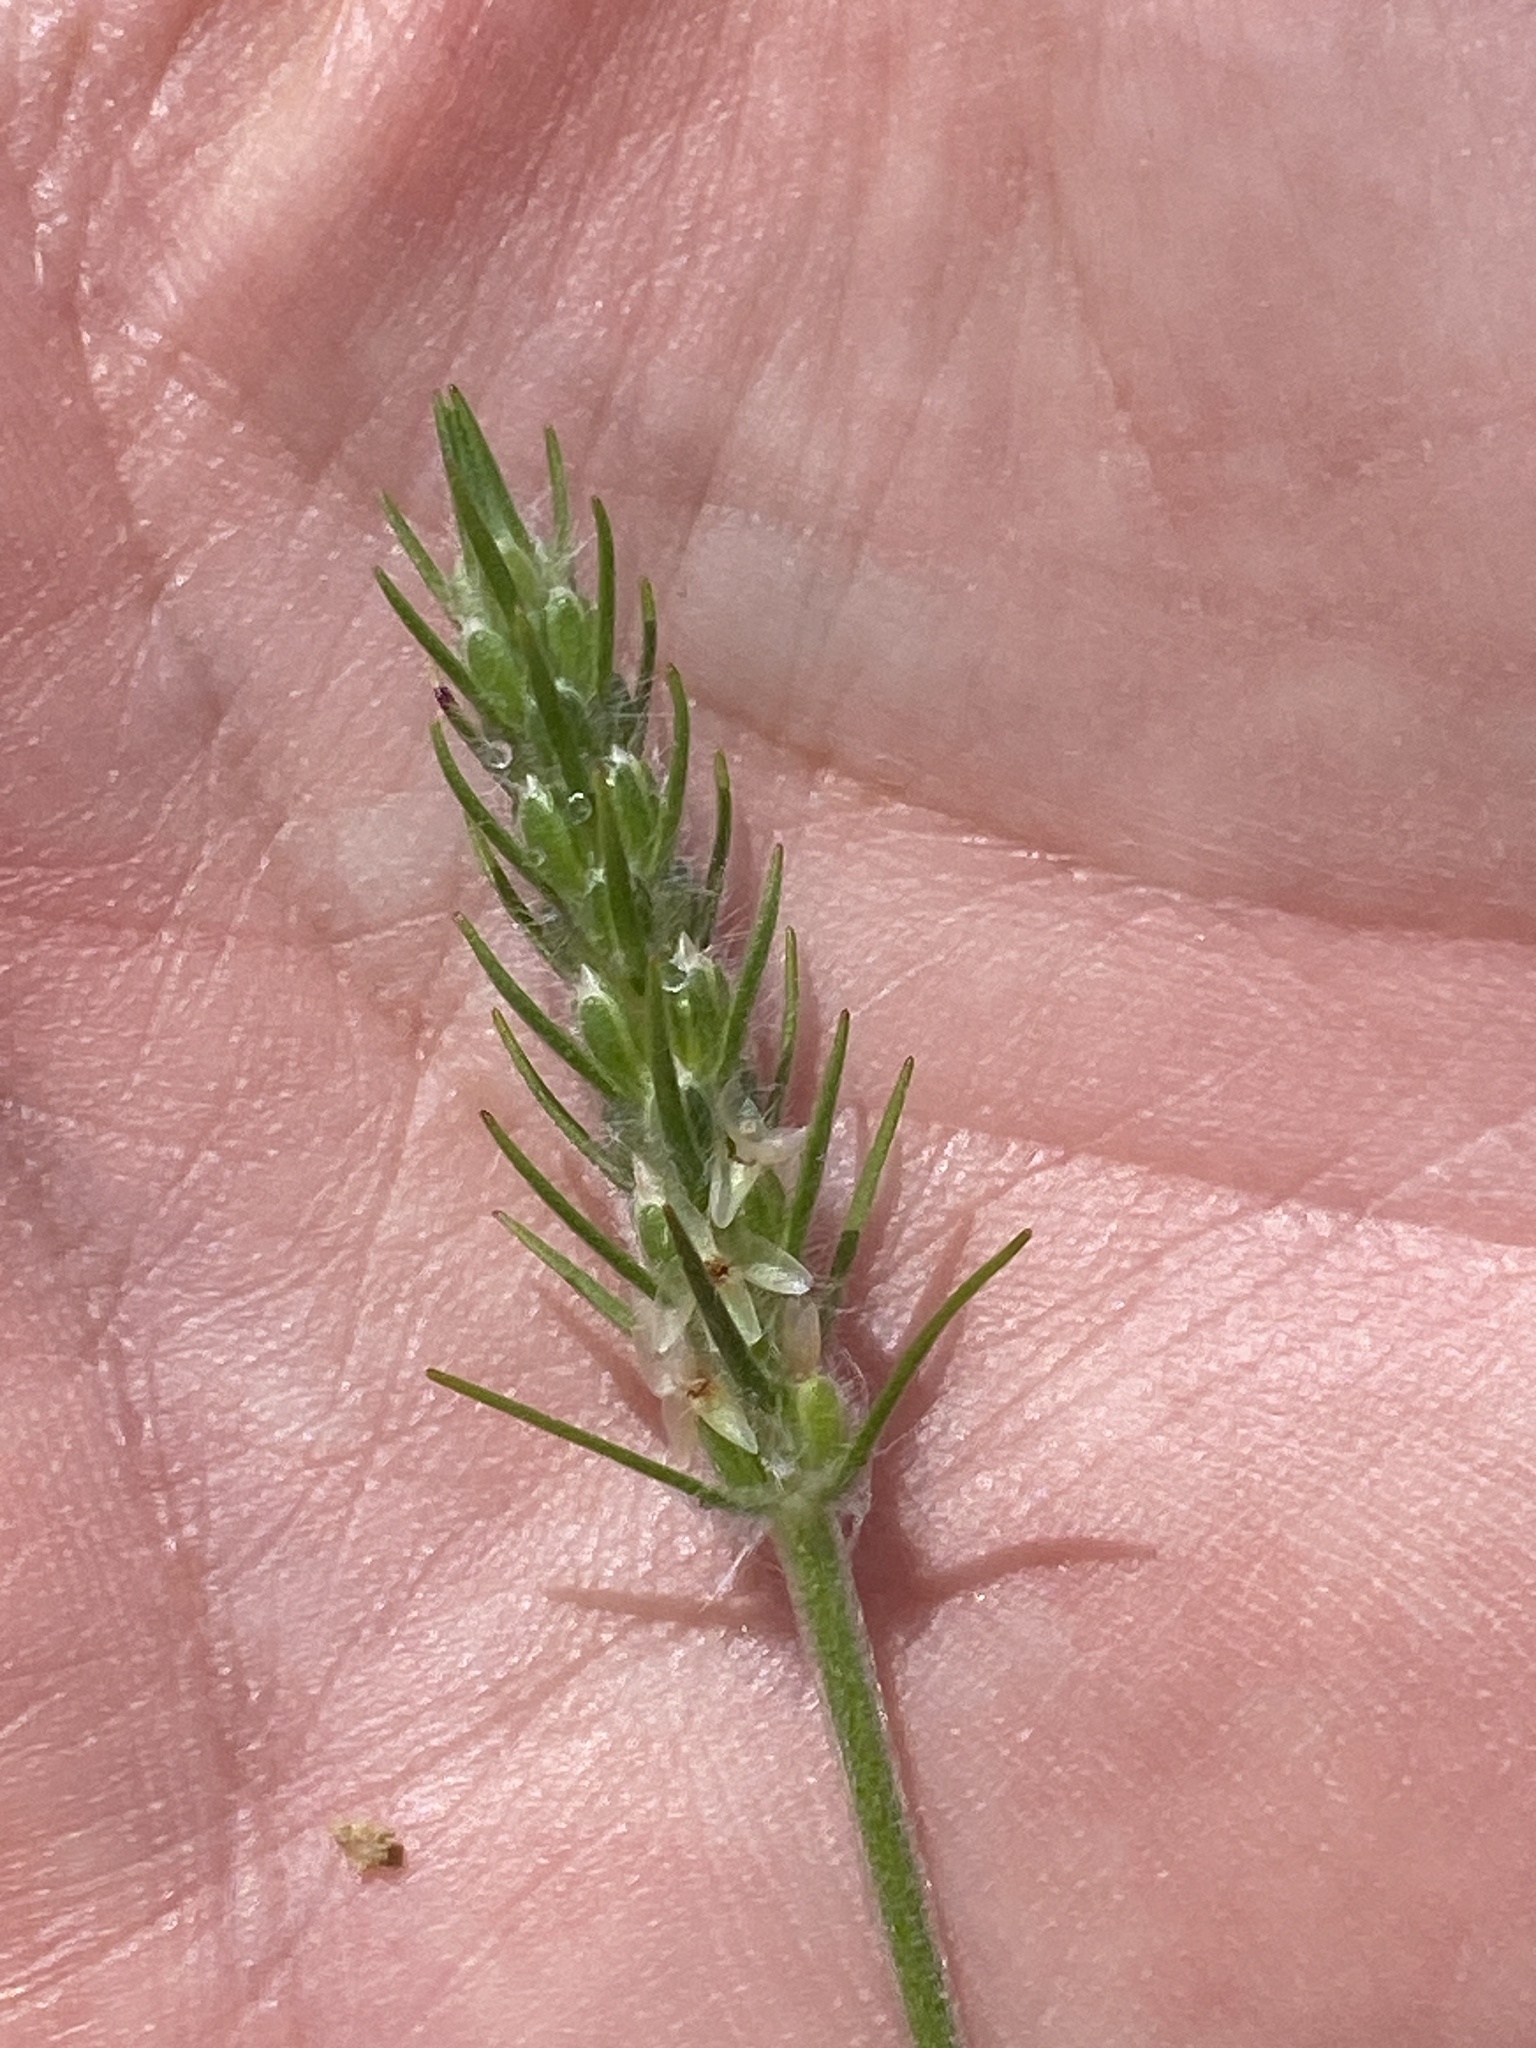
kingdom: Plantae
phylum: Tracheophyta
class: Magnoliopsida
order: Lamiales
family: Plantaginaceae
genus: Plantago
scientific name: Plantago aristata
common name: Bracted plantain
